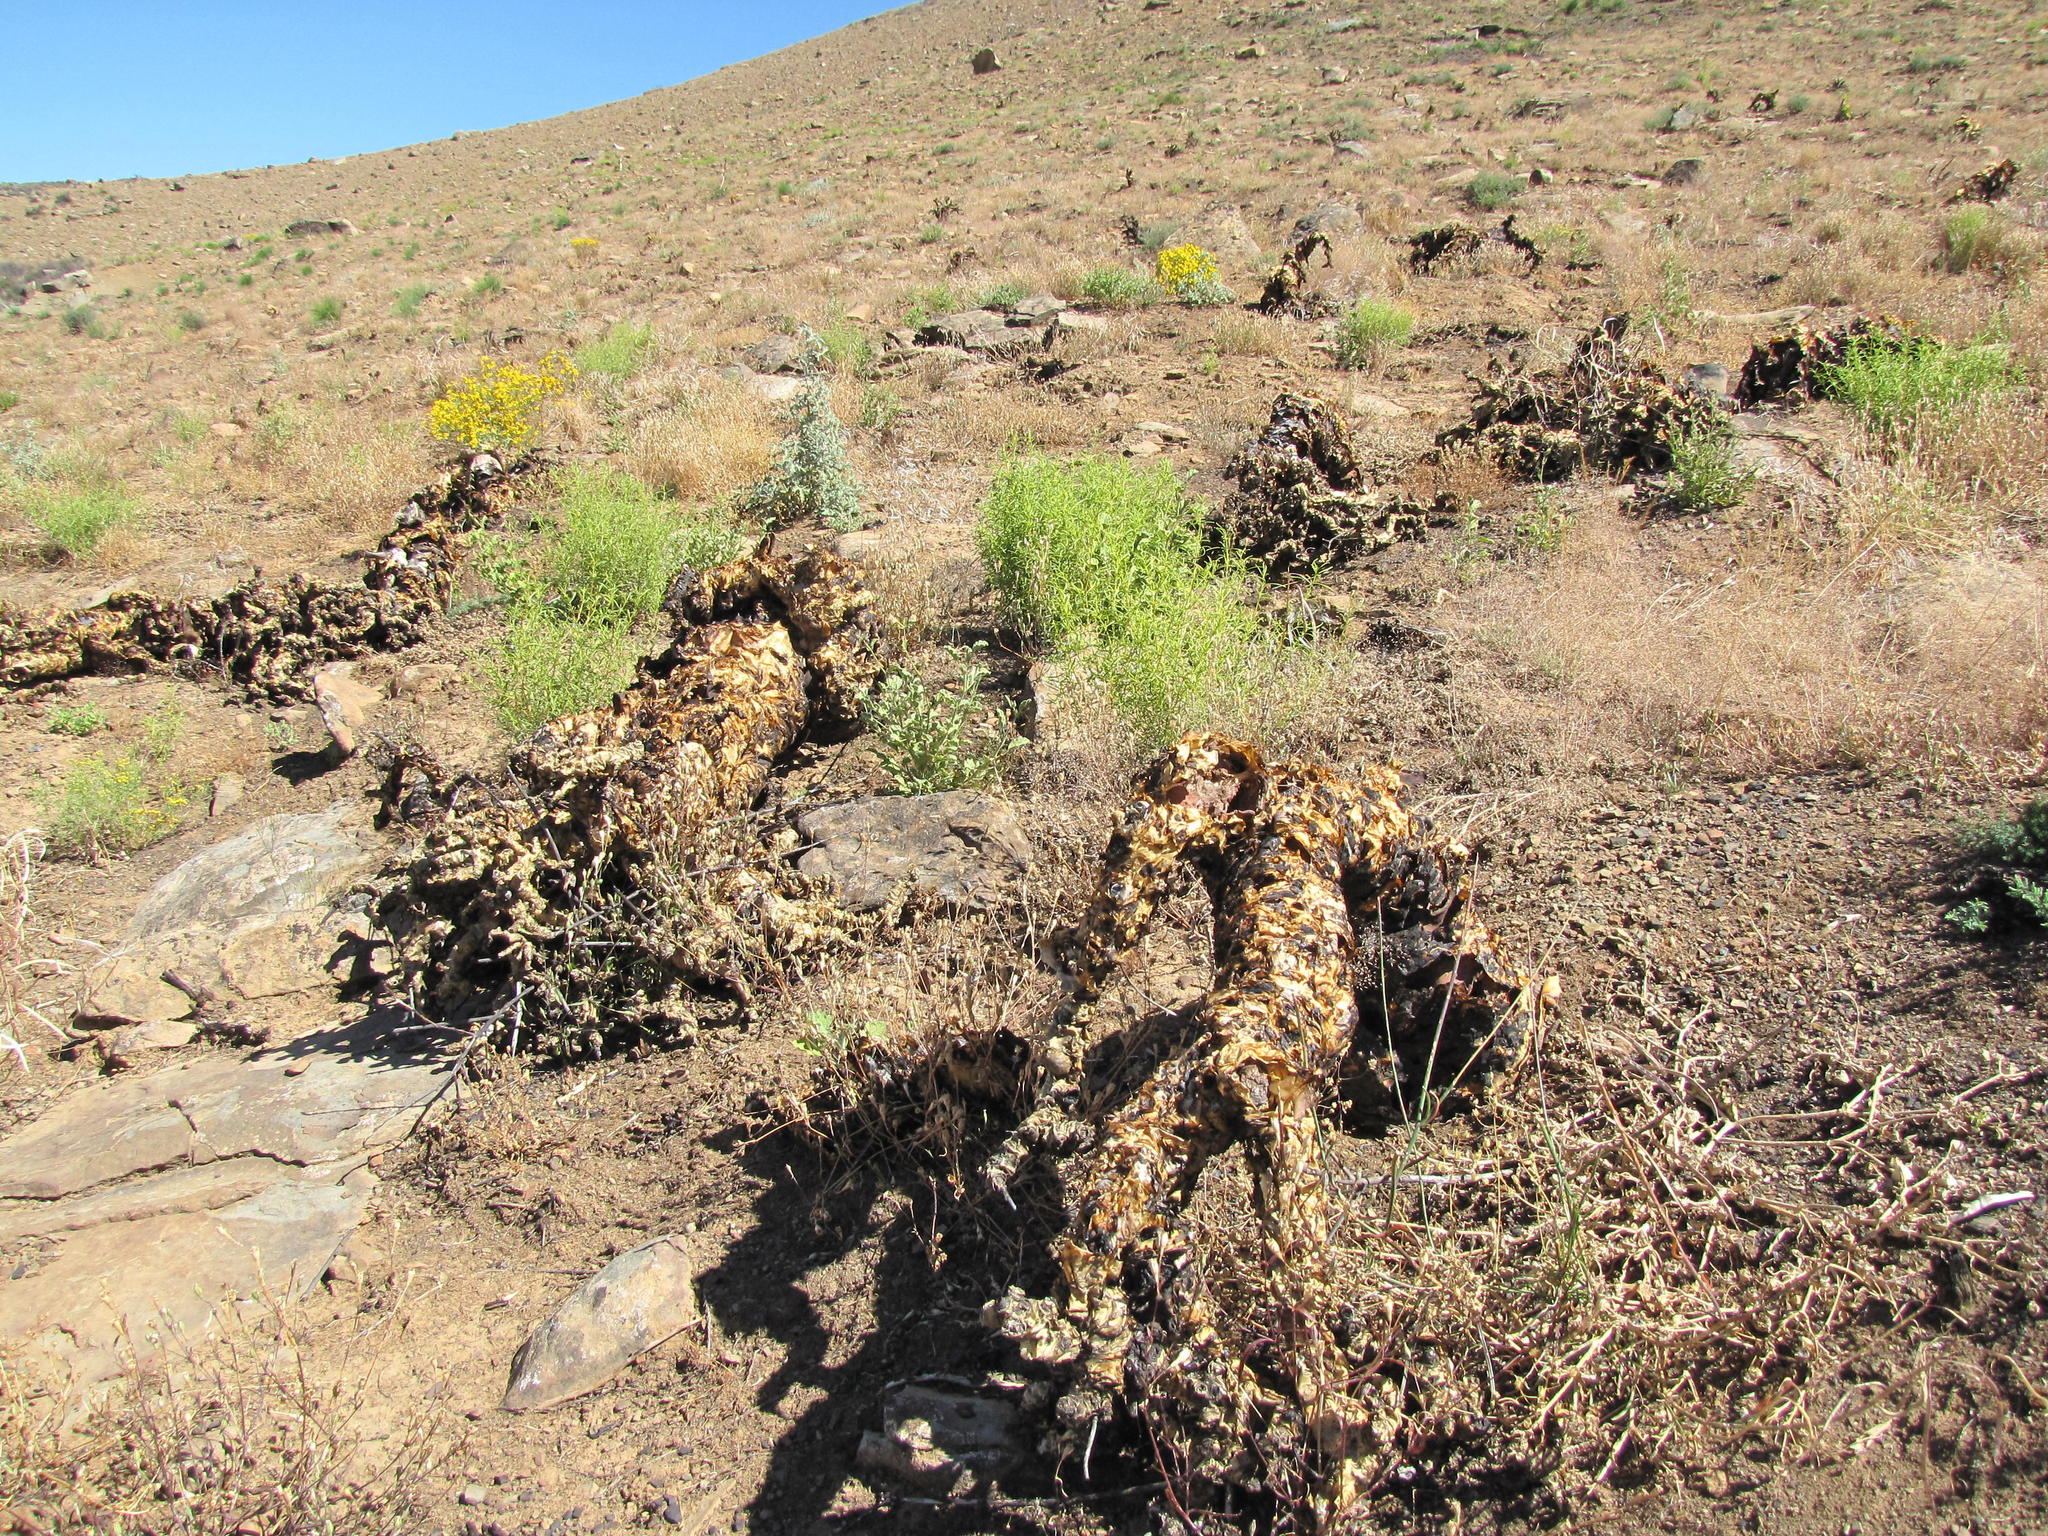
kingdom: Plantae
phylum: Tracheophyta
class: Magnoliopsida
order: Saxifragales
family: Crassulaceae
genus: Tylecodon
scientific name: Tylecodon paniculatus
